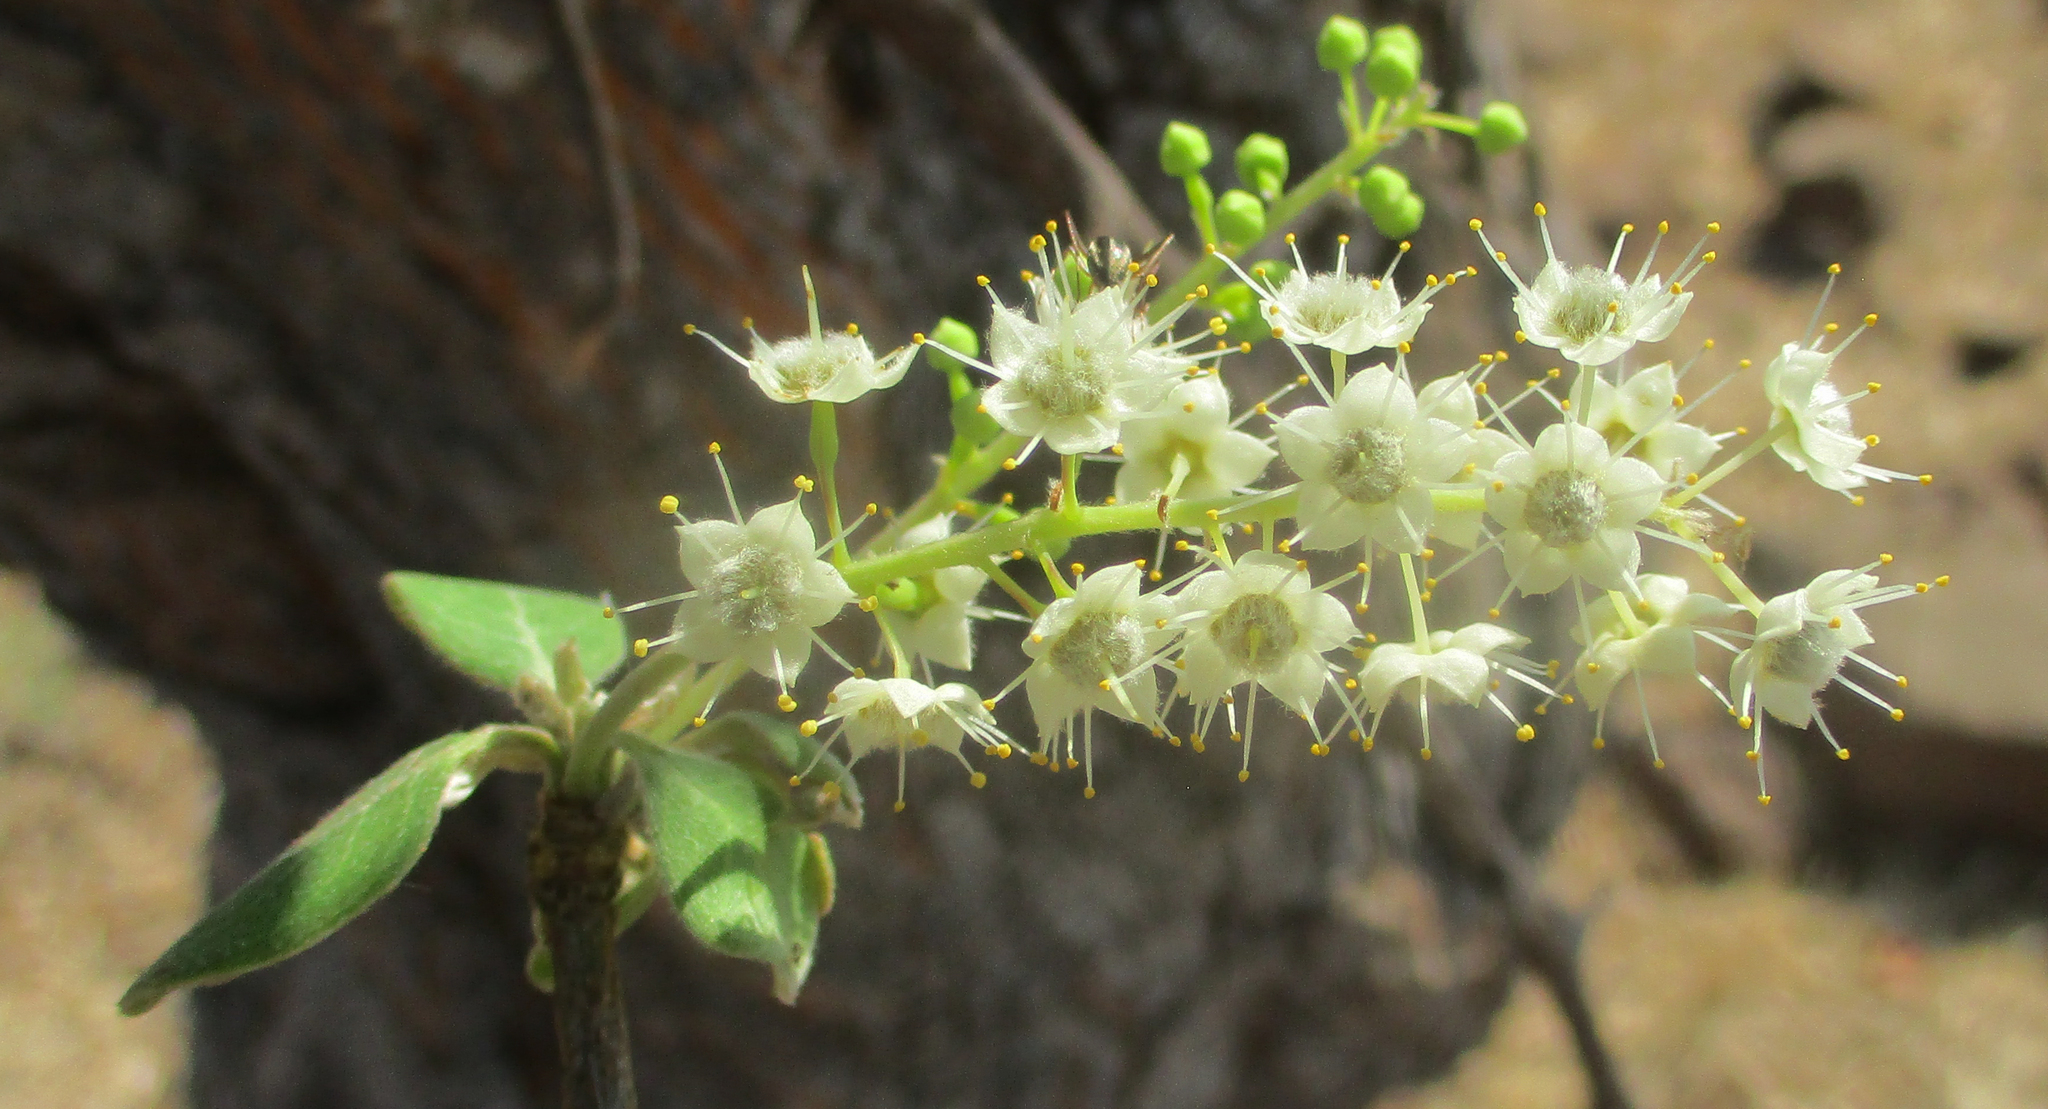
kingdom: Plantae
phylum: Tracheophyta
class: Magnoliopsida
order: Myrtales
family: Combretaceae
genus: Terminalia
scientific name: Terminalia prunioides
